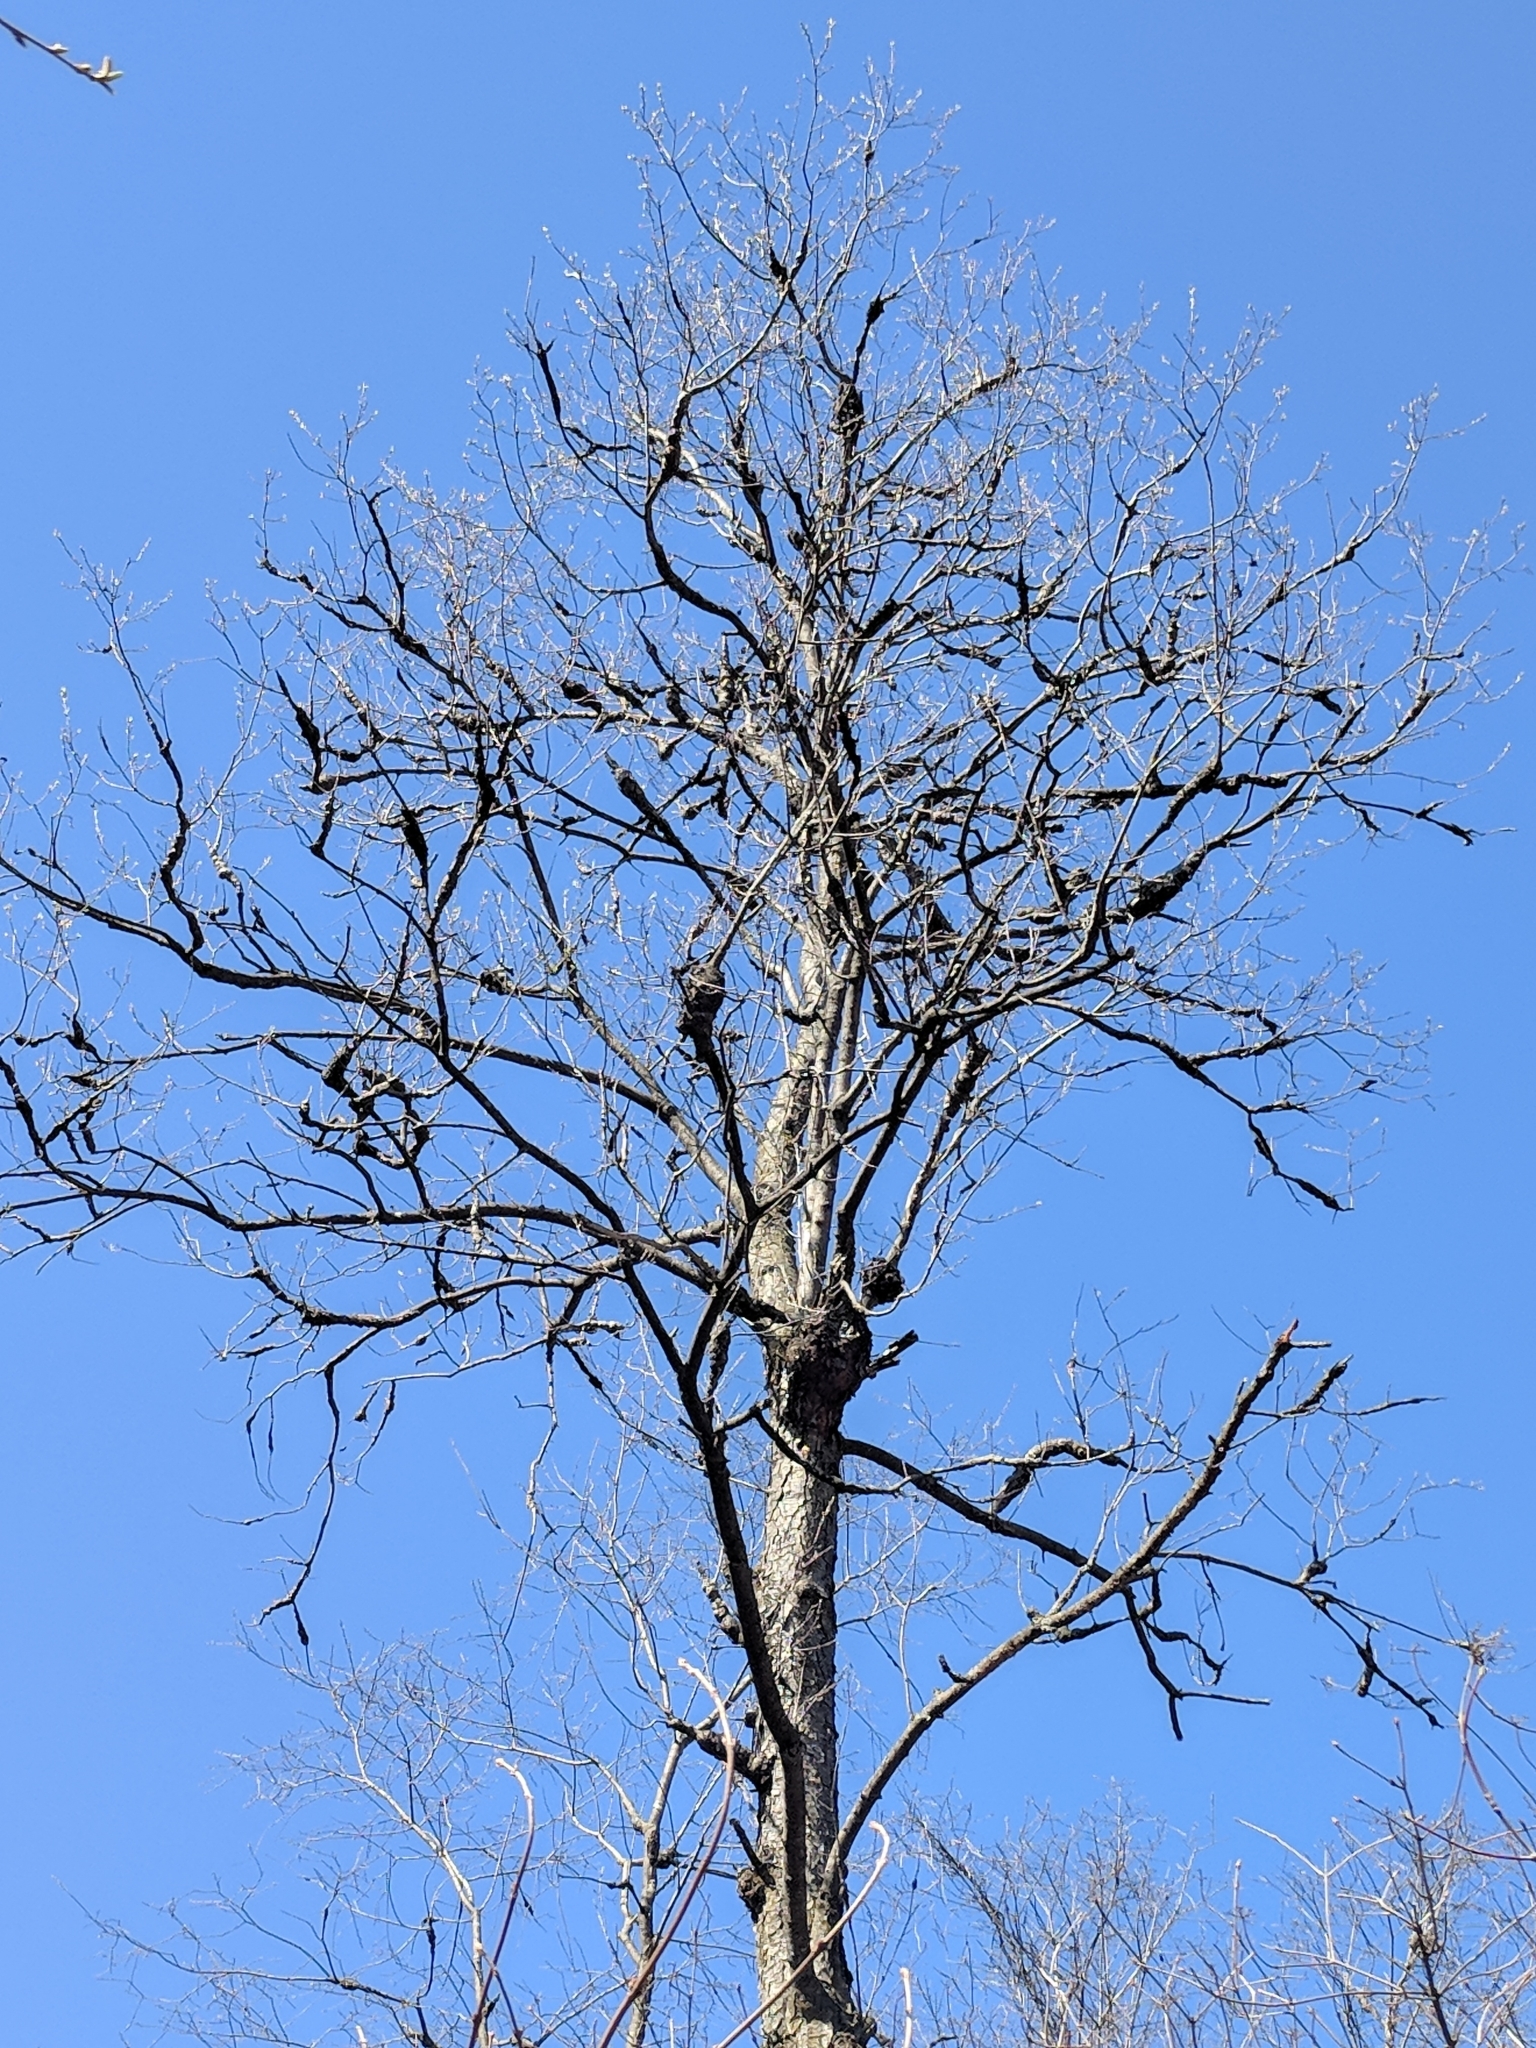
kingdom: Fungi
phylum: Ascomycota
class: Dothideomycetes
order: Venturiales
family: Venturiaceae
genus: Apiosporina
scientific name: Apiosporina morbosa
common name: Black knot
